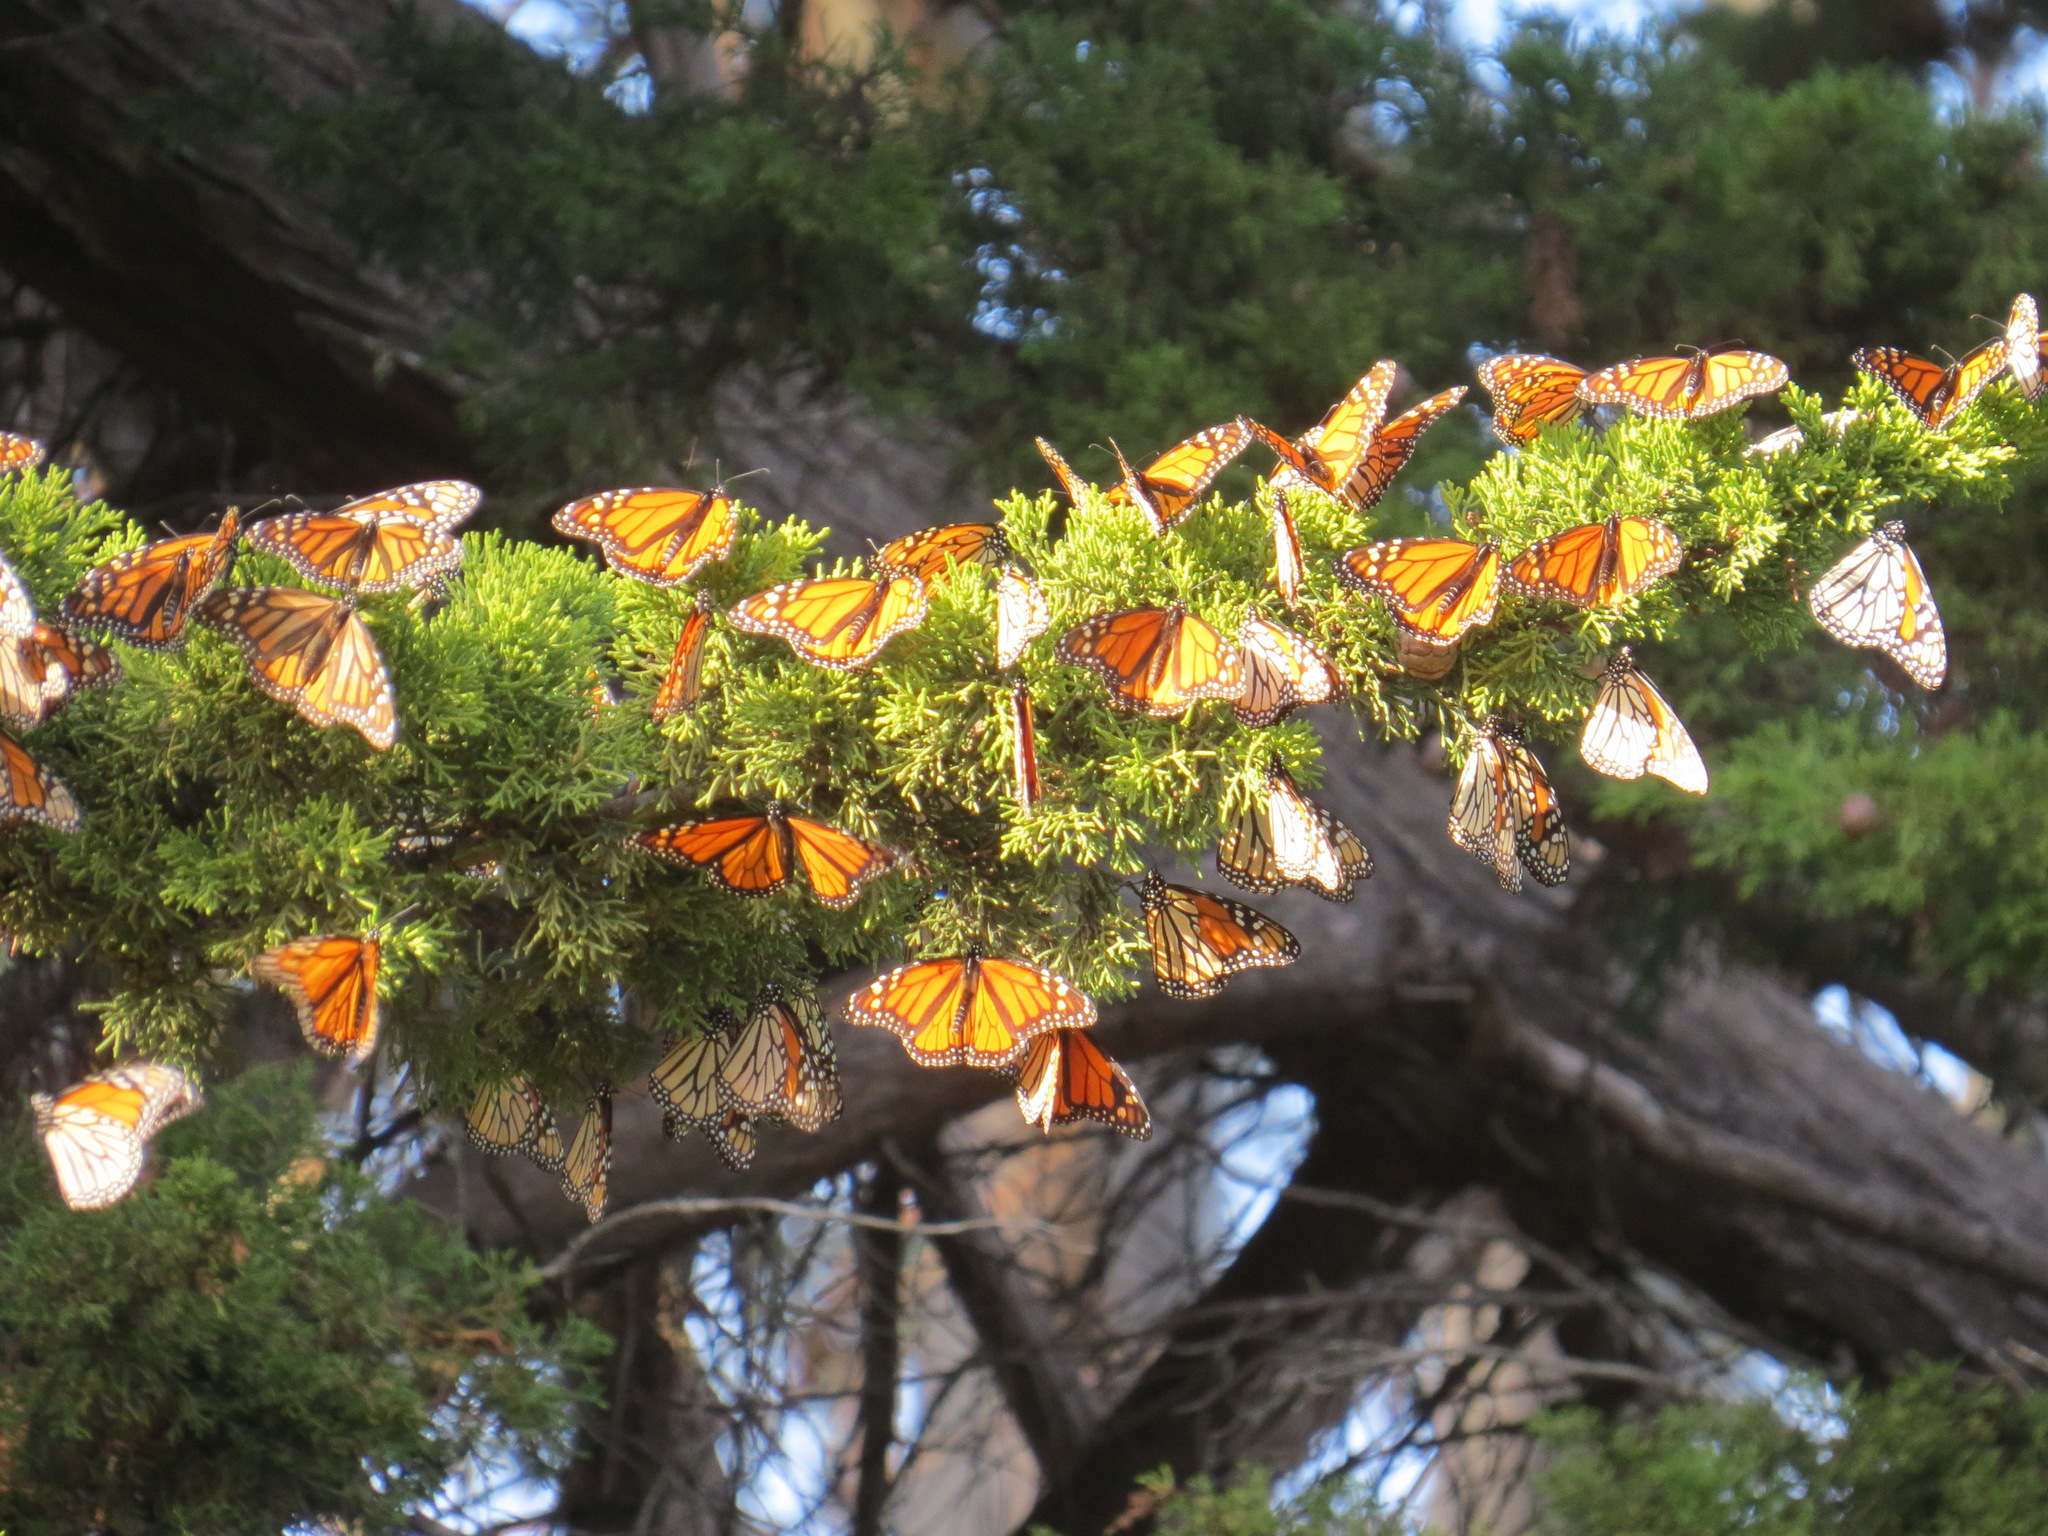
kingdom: Animalia
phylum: Arthropoda
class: Insecta
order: Lepidoptera
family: Nymphalidae
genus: Danaus
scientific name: Danaus plexippus
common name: Monarch
